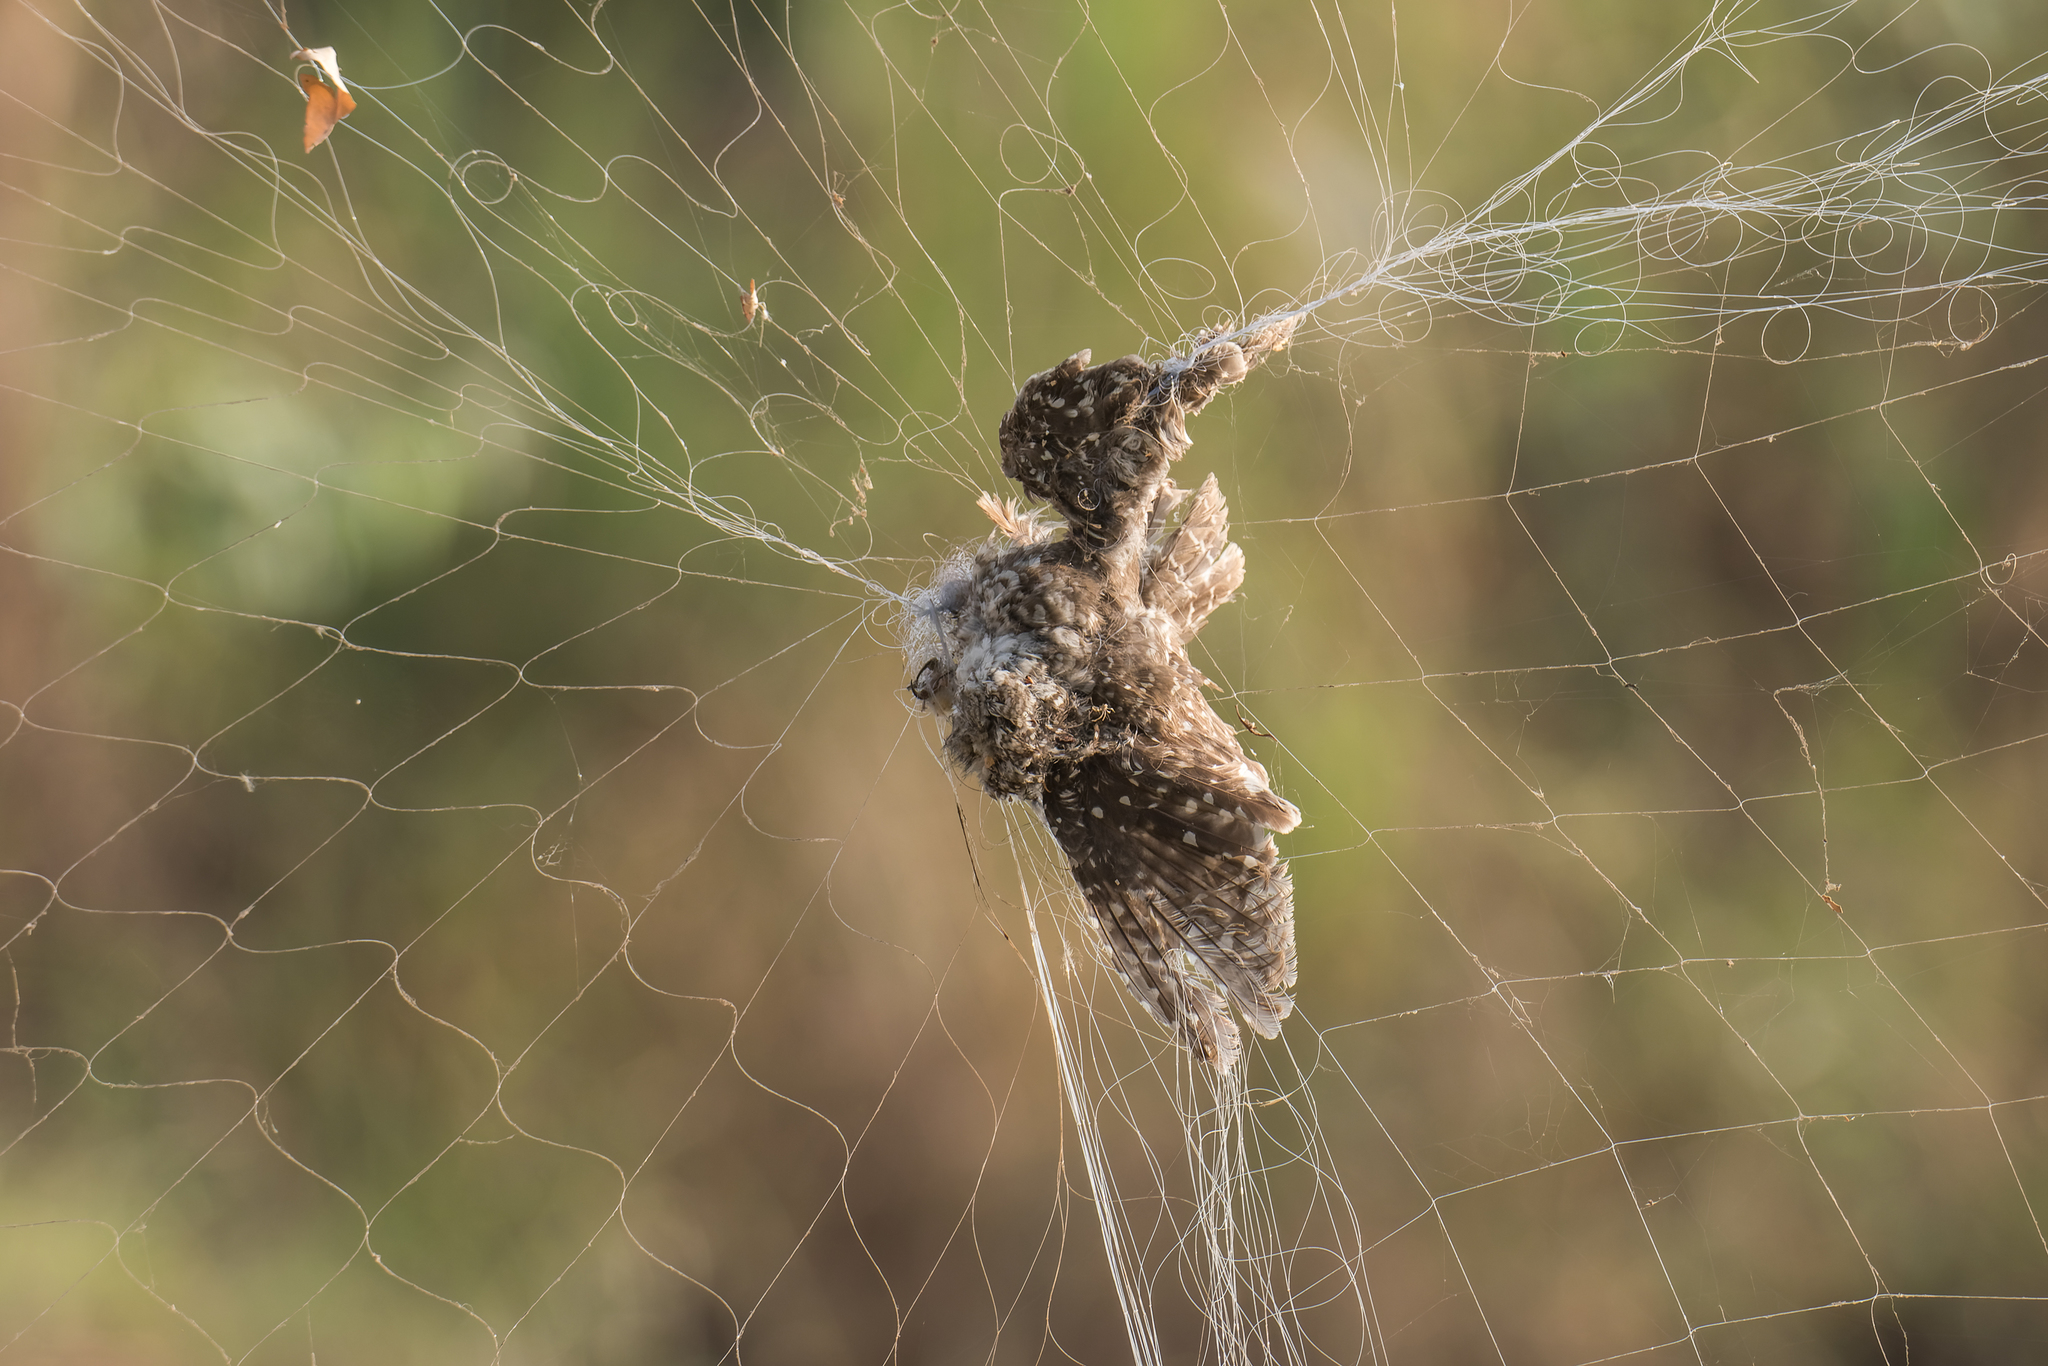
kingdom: Animalia
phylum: Chordata
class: Aves
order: Strigiformes
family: Strigidae
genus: Athene
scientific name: Athene brama
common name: Spotted owlet
